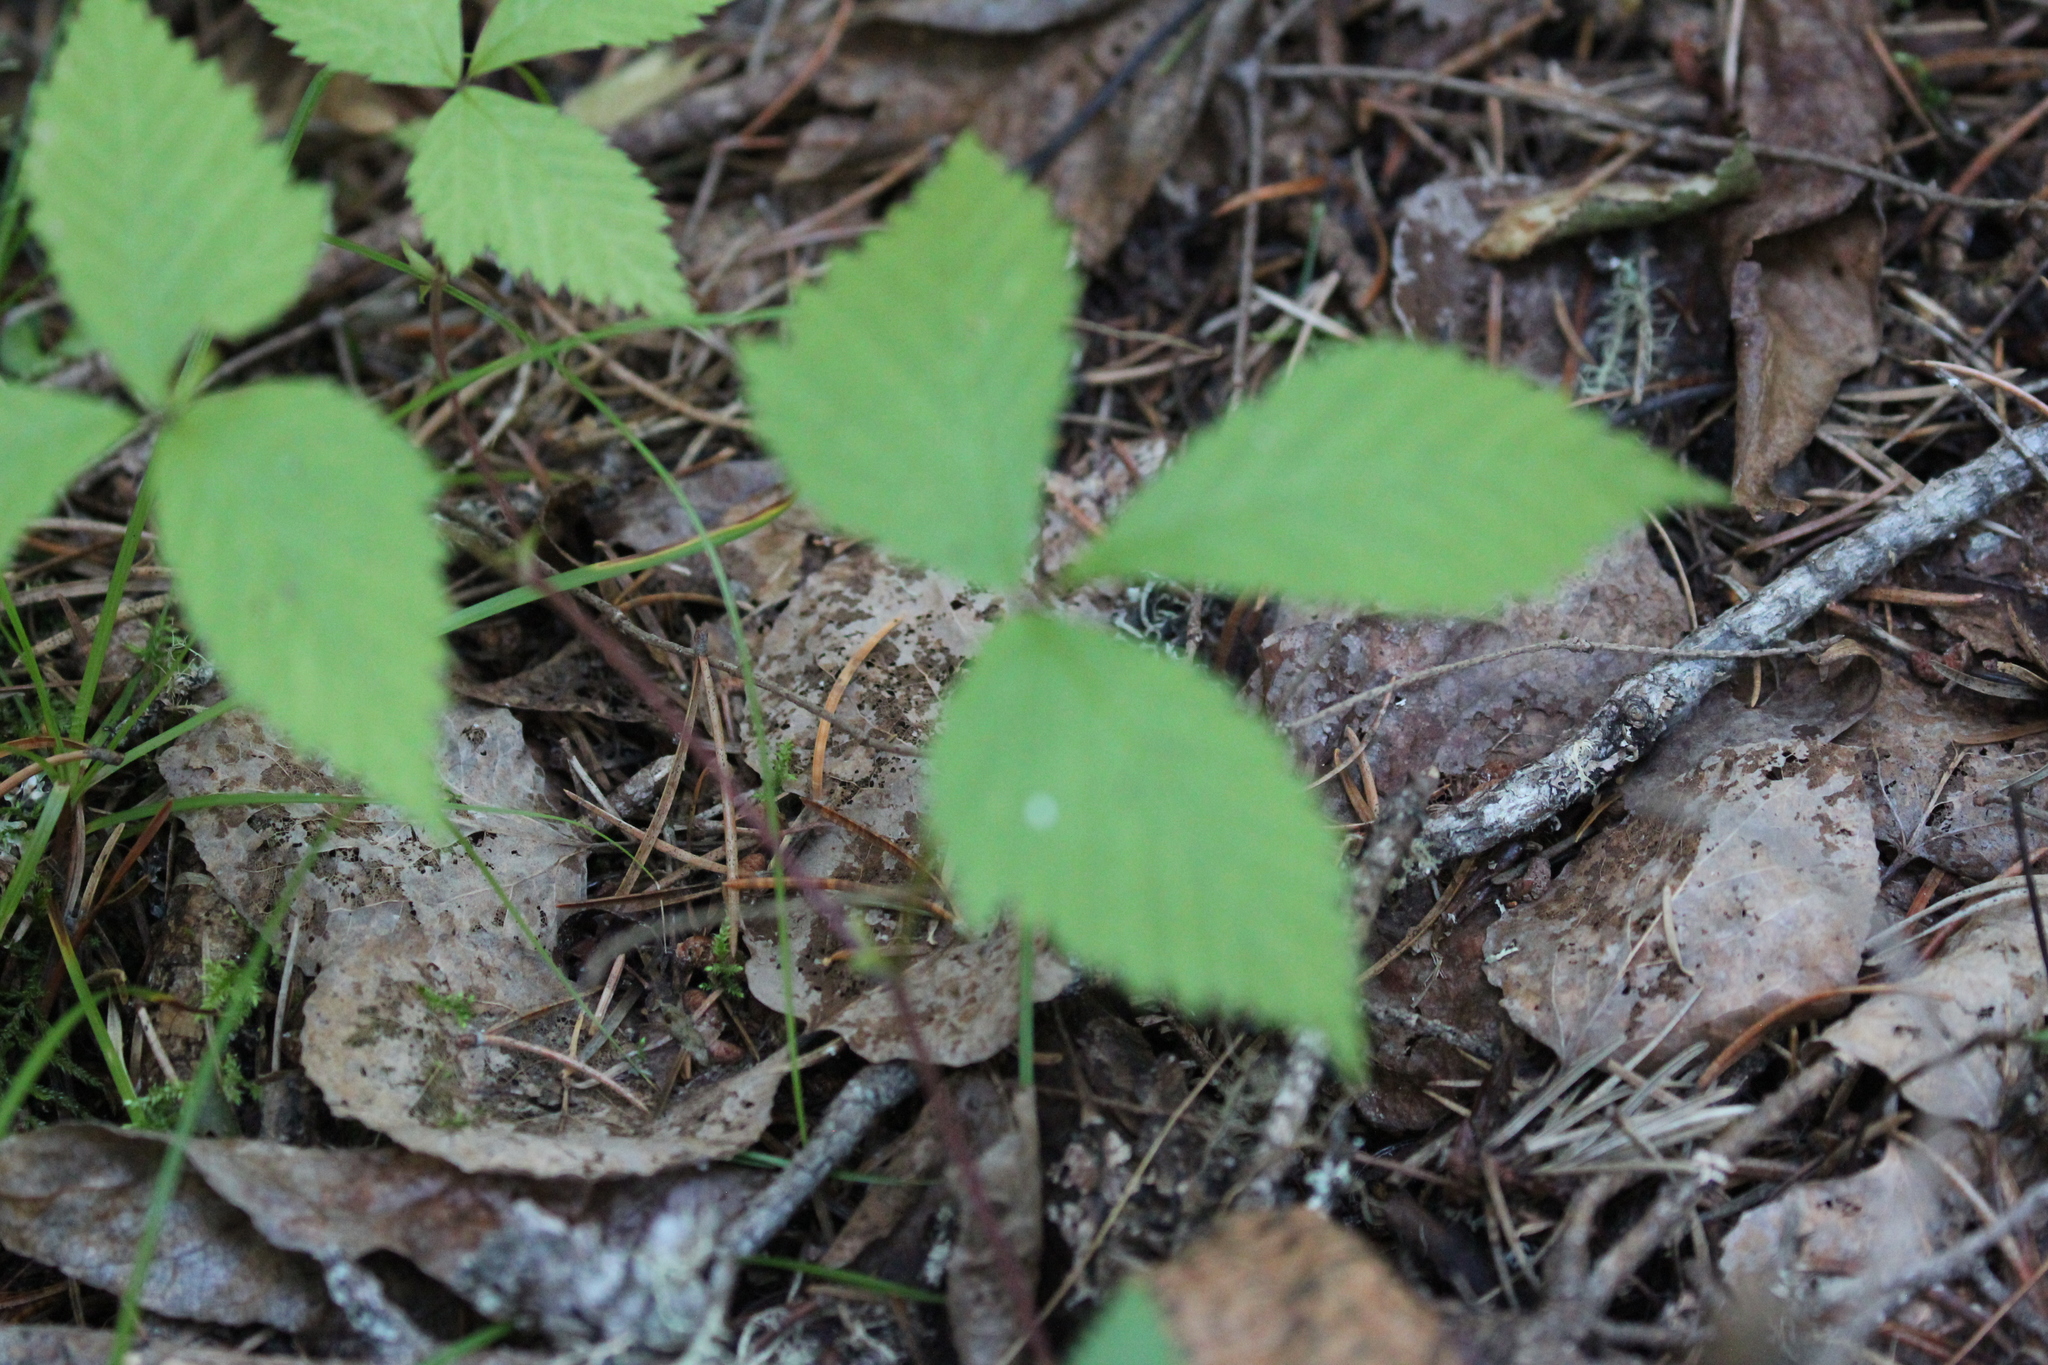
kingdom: Plantae
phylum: Tracheophyta
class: Magnoliopsida
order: Rosales
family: Rosaceae
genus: Rubus
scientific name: Rubus pubescens
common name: Dwarf raspberry
